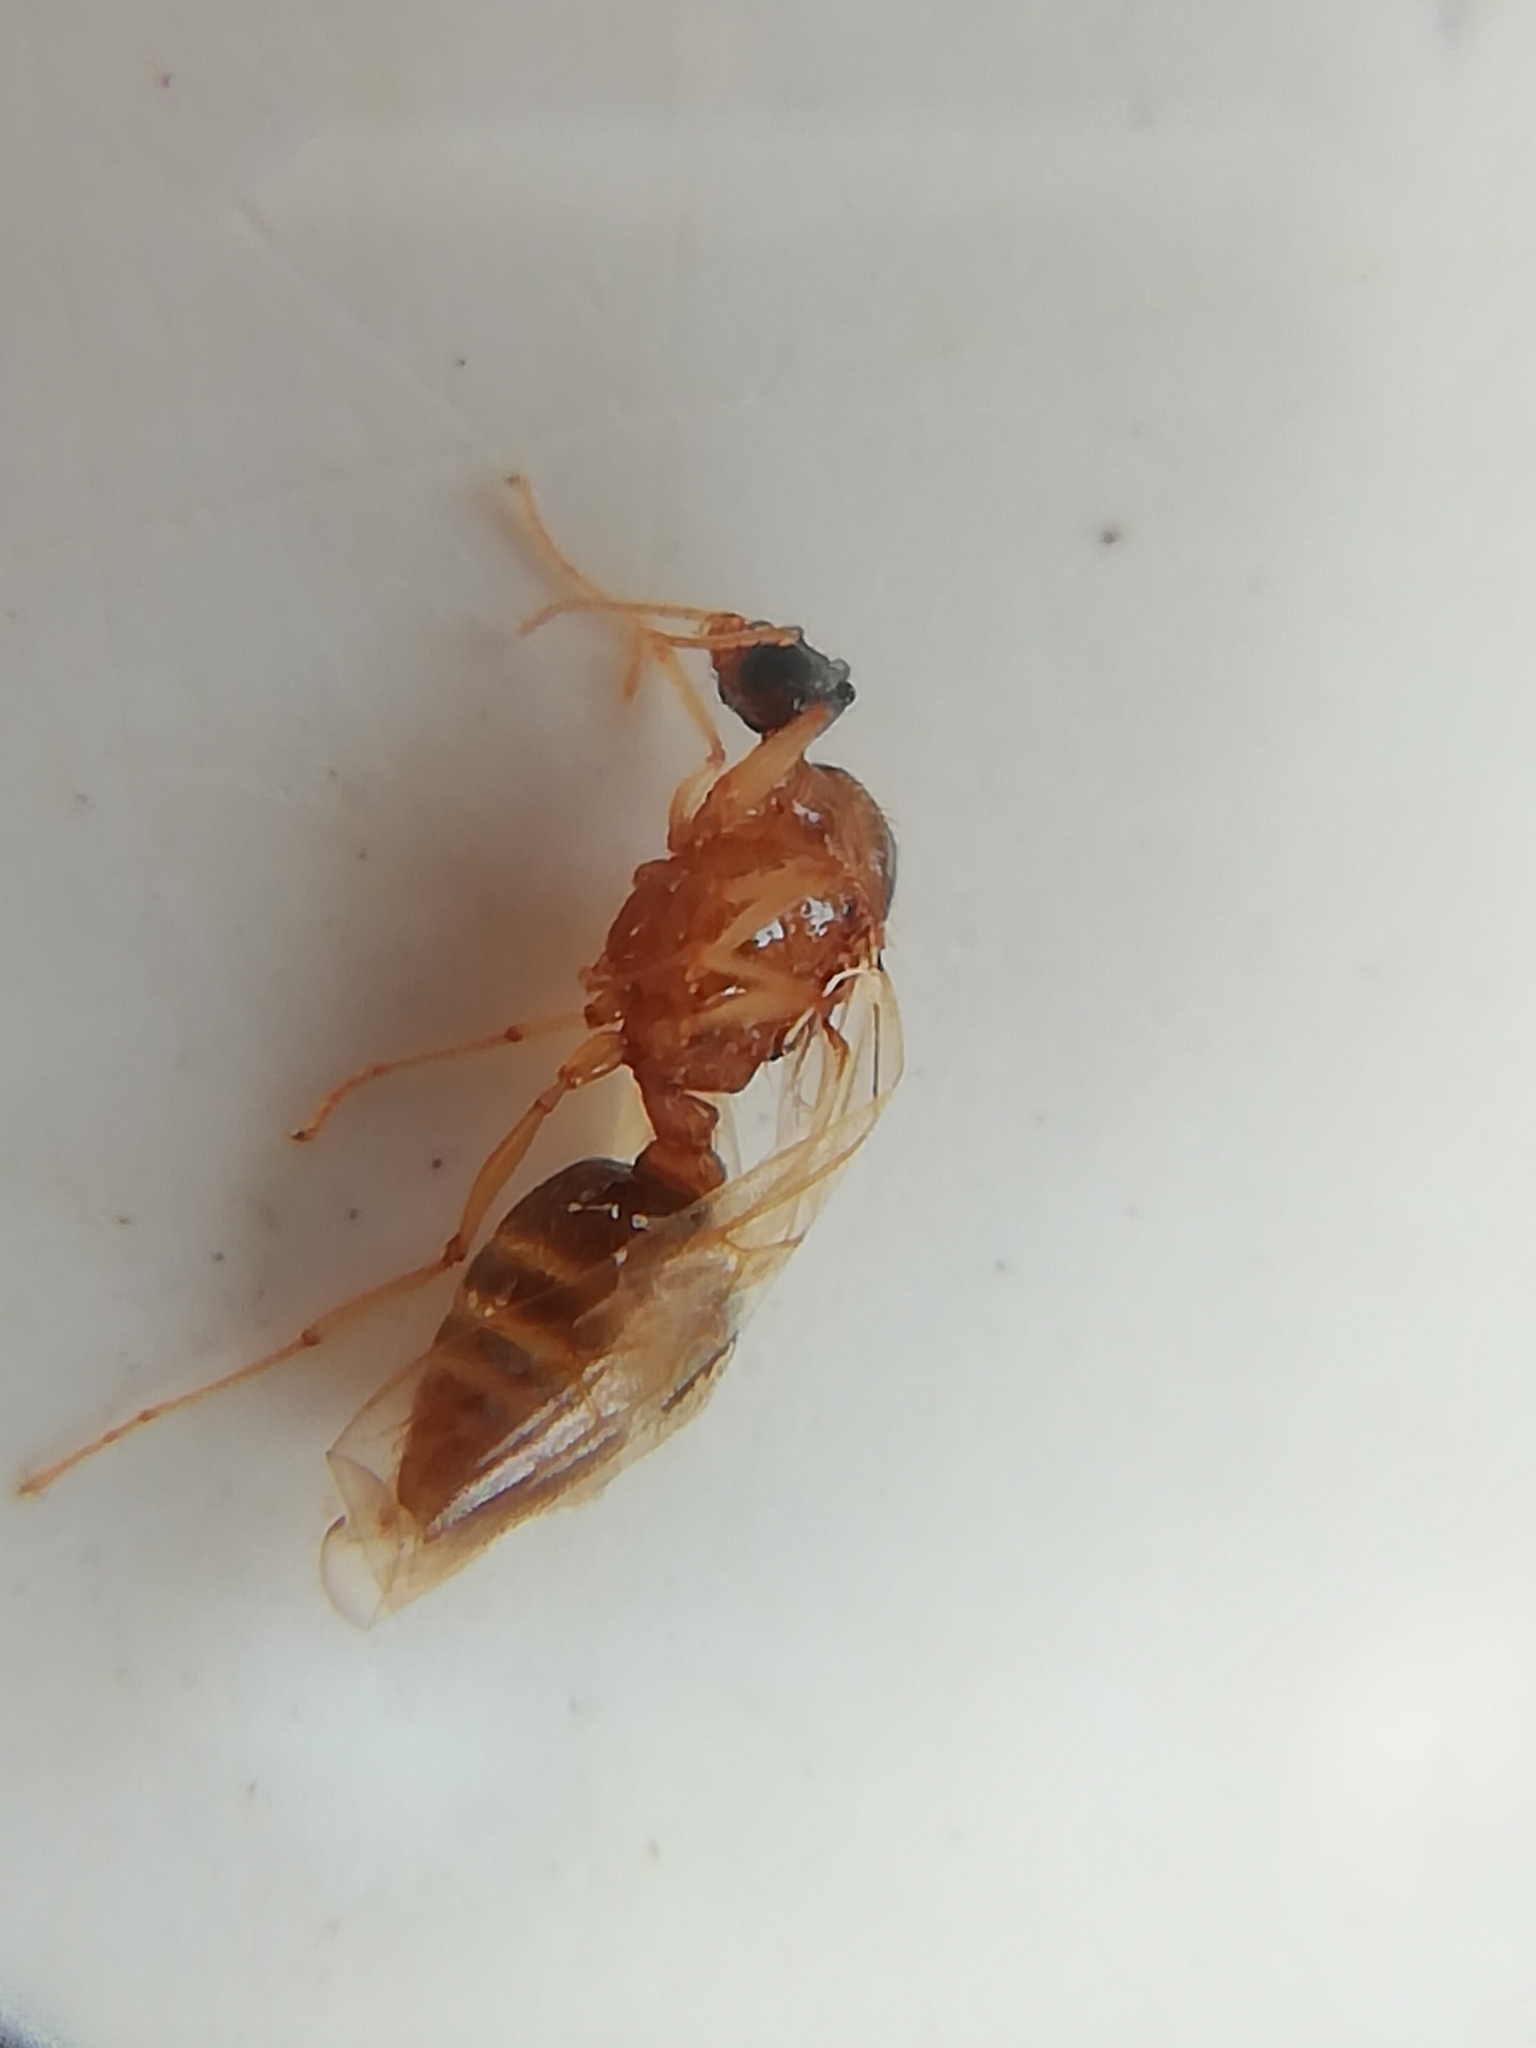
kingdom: Animalia
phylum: Arthropoda
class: Insecta
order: Hymenoptera
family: Formicidae
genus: Pheidole
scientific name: Pheidole pallidula
